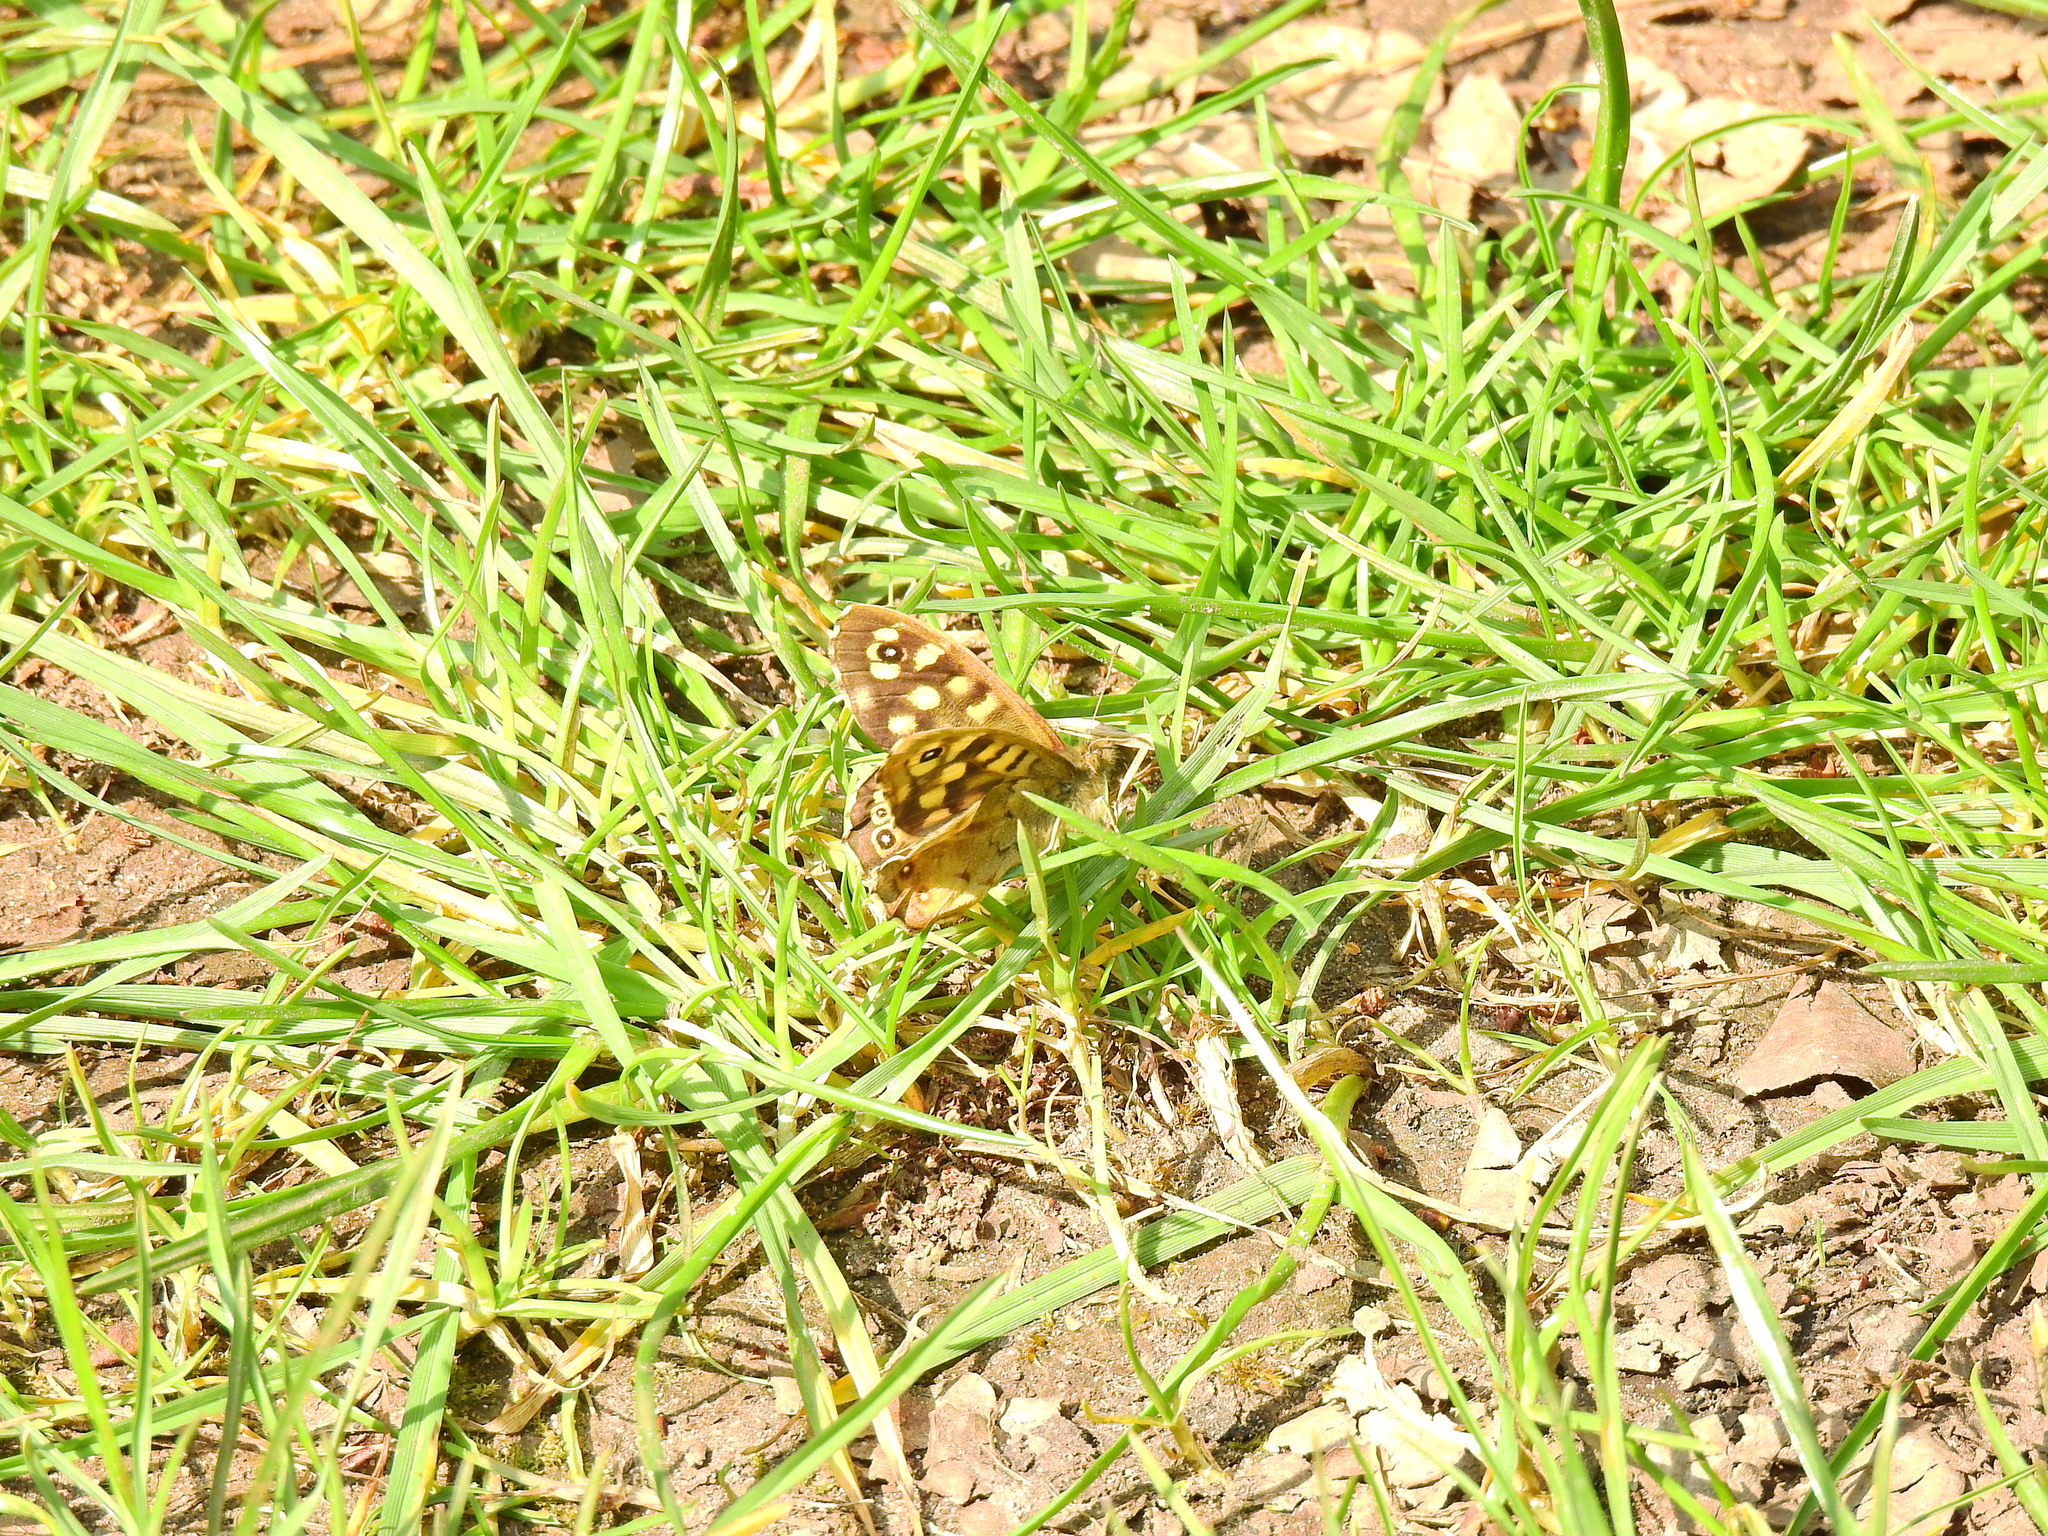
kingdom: Animalia
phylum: Arthropoda
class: Insecta
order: Lepidoptera
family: Nymphalidae
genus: Pararge
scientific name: Pararge aegeria
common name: Speckled wood
